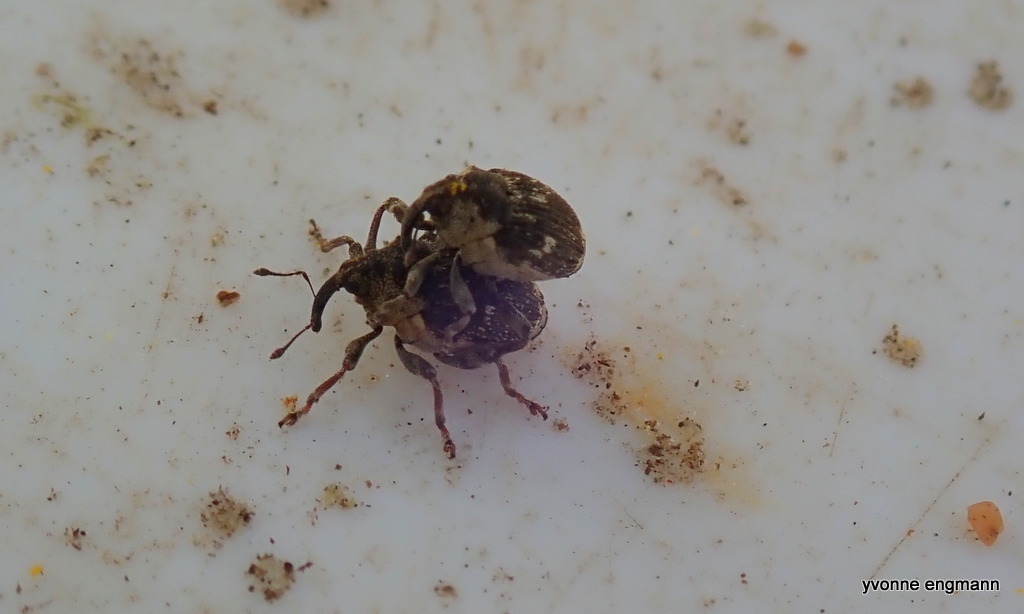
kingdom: Animalia
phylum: Arthropoda
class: Insecta
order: Coleoptera
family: Curculionidae
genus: Nedyus
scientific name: Nedyus quadrimaculatus
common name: Small nettle weevil
